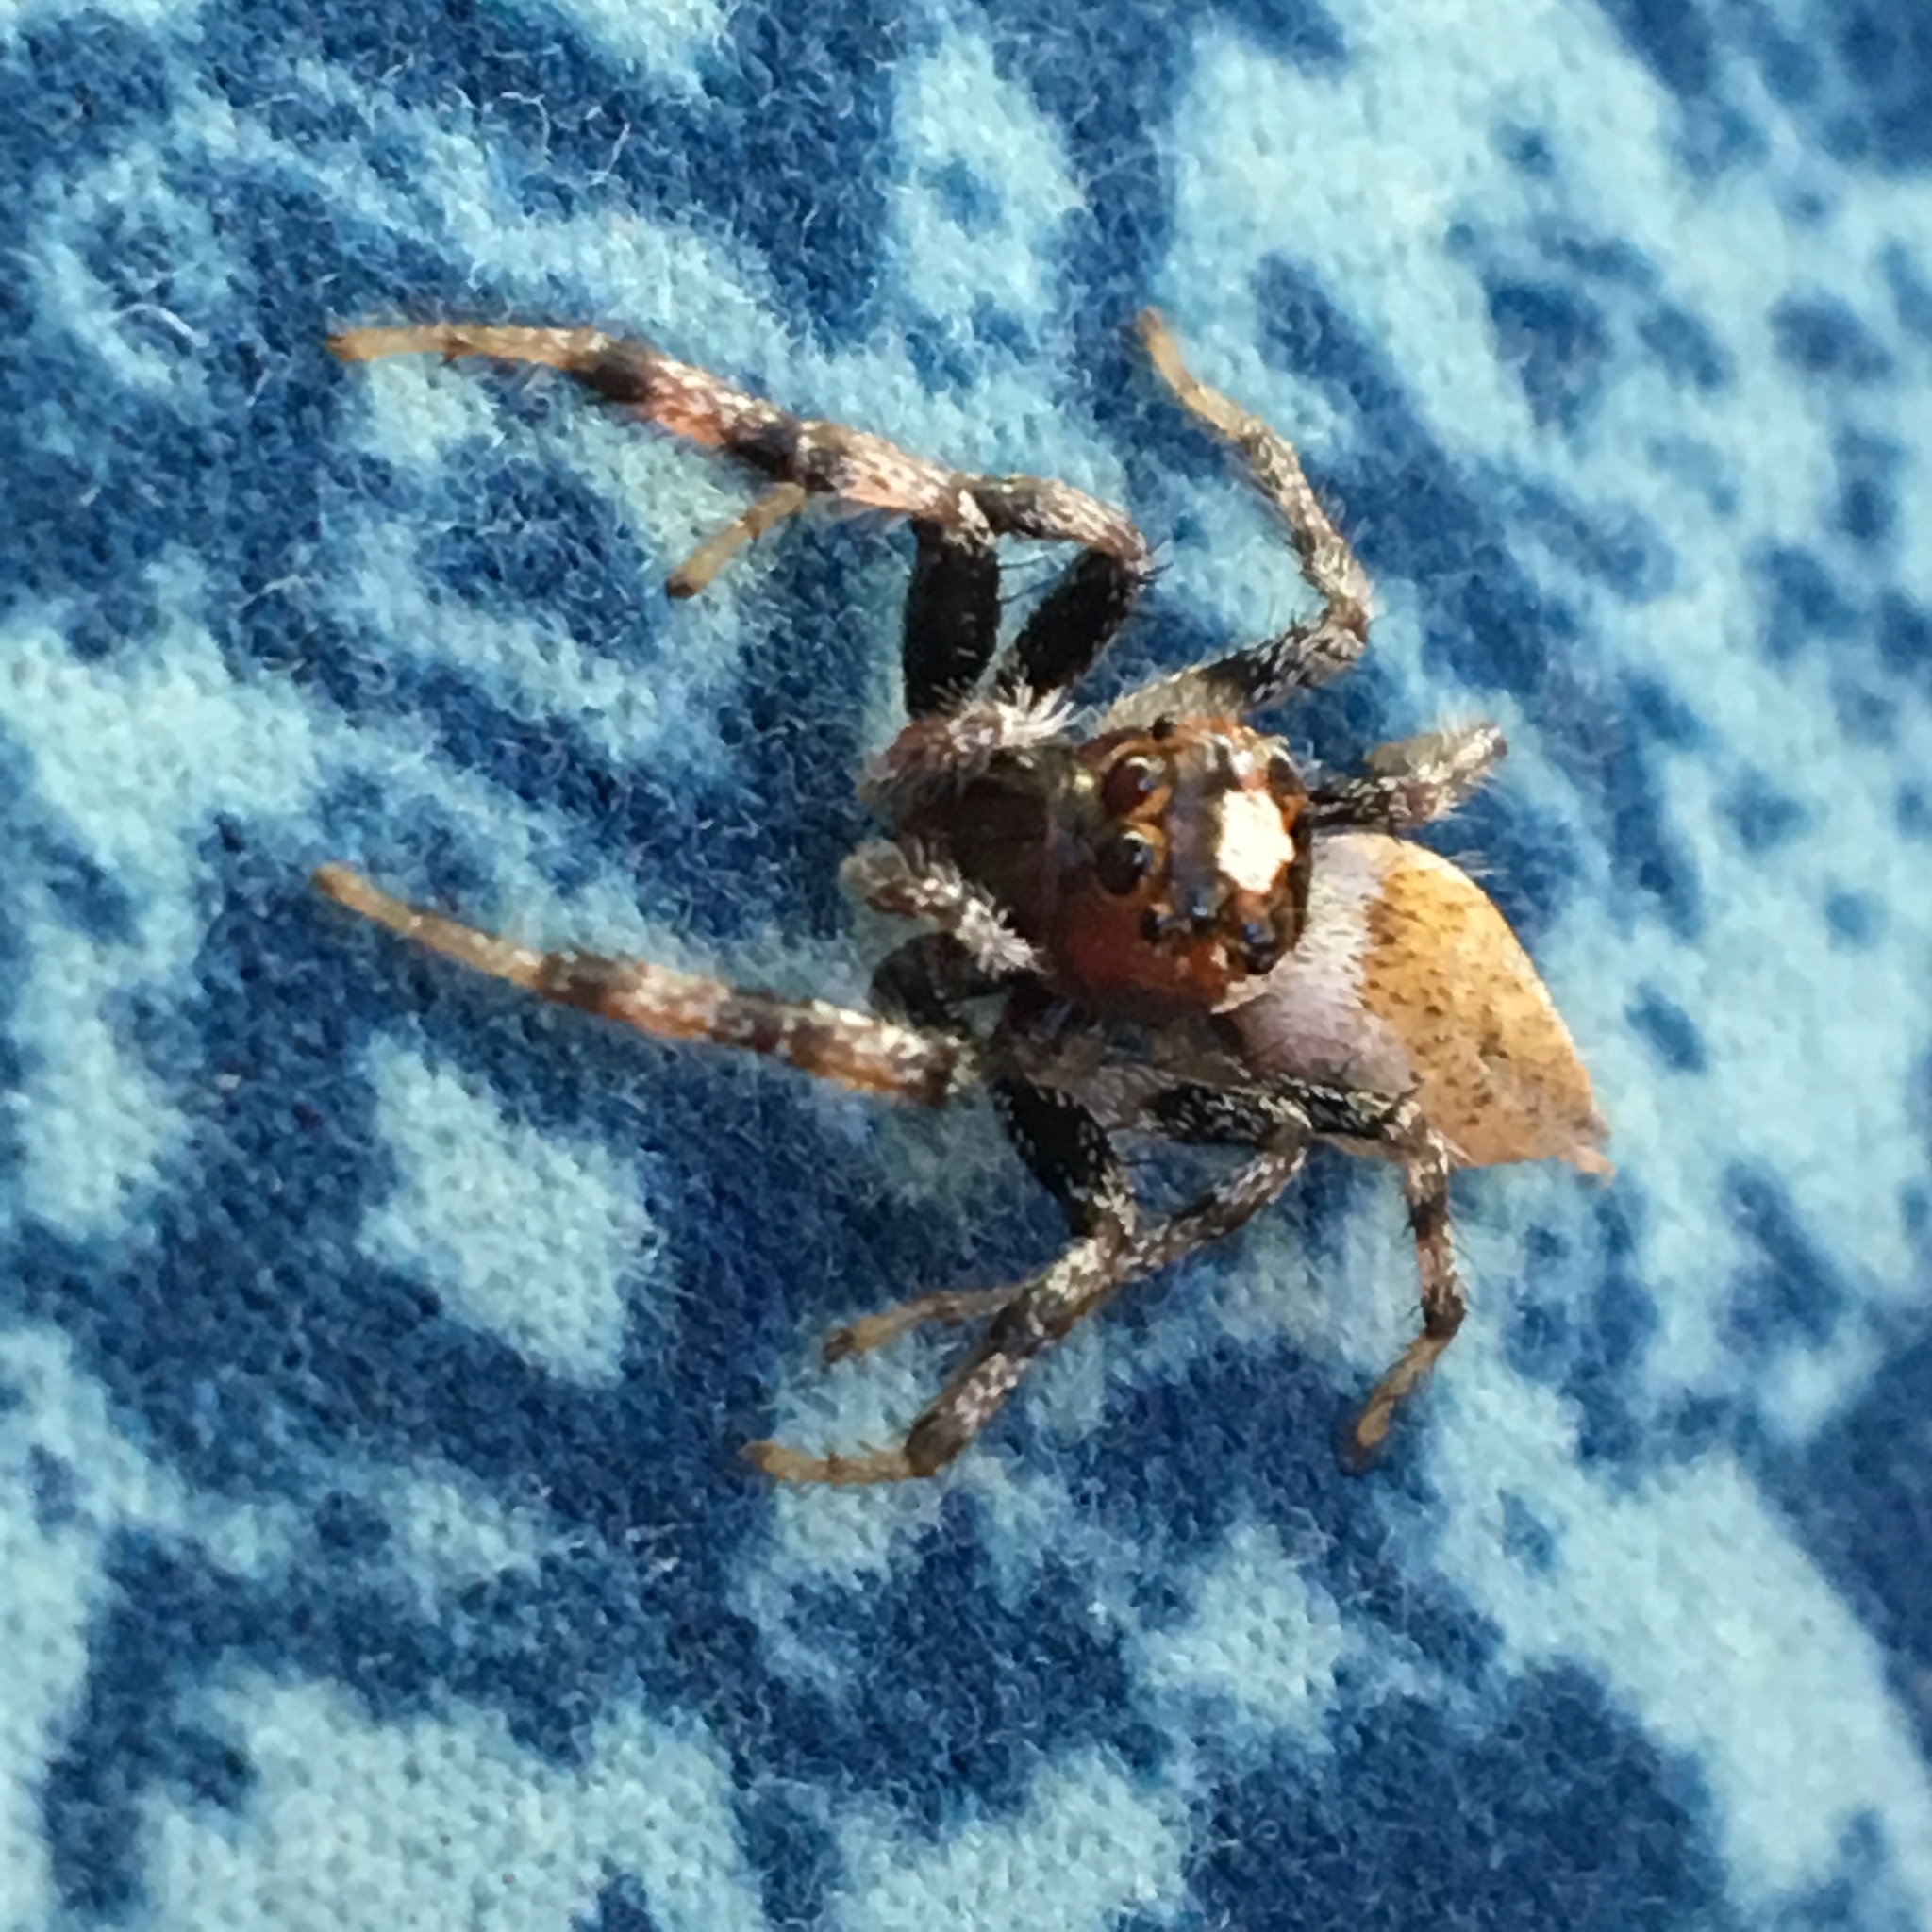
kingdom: Animalia
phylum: Arthropoda
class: Arachnida
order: Araneae
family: Salticidae
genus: Colonus
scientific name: Colonus hesperus
